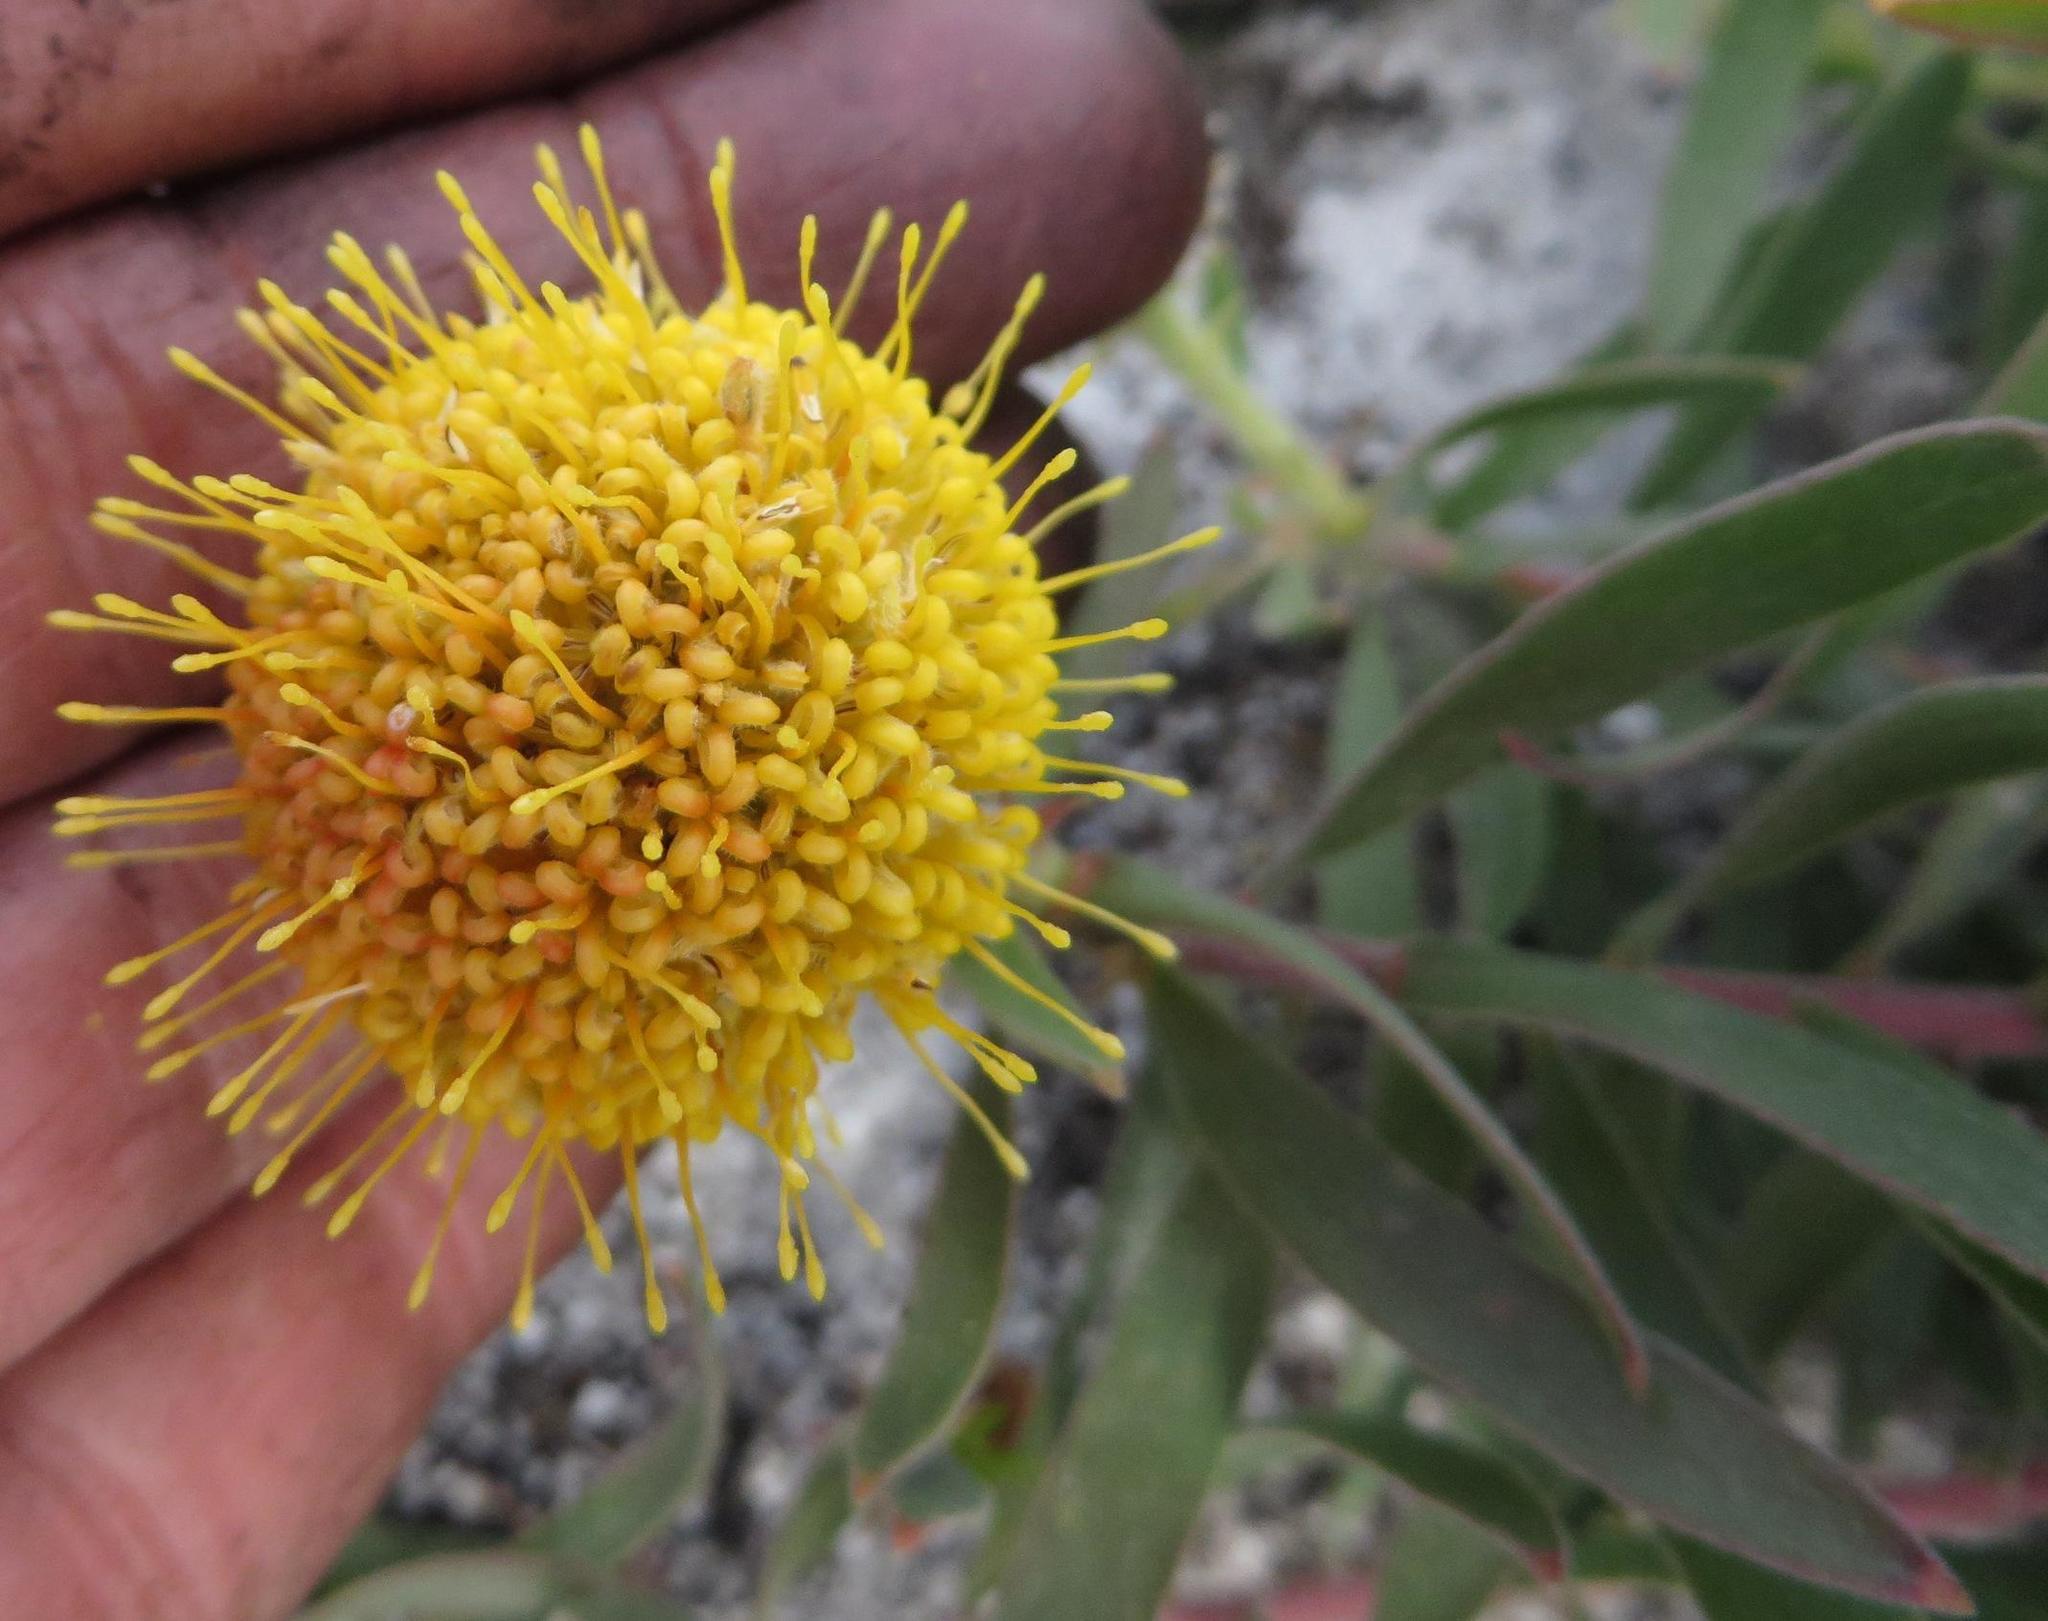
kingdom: Plantae
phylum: Tracheophyta
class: Magnoliopsida
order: Proteales
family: Proteaceae
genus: Leucospermum
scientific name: Leucospermum prostratum
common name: Yellow-trailing pincushion
